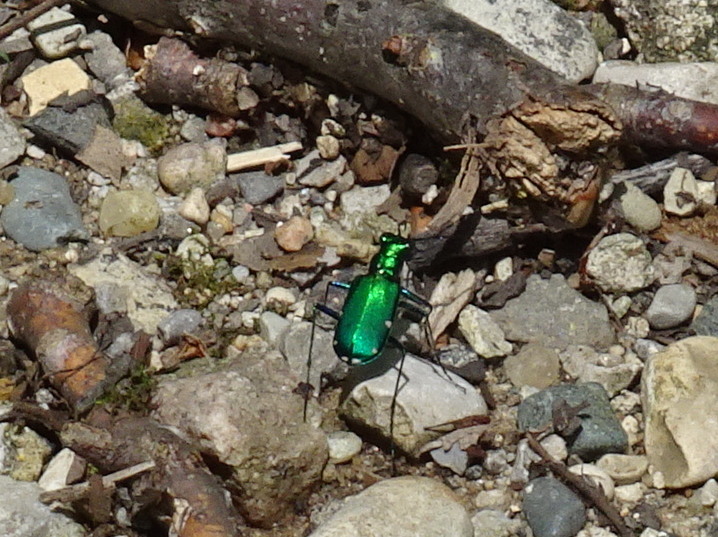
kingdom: Animalia
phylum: Arthropoda
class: Insecta
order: Coleoptera
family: Carabidae
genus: Cicindela
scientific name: Cicindela sexguttata
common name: Six-spotted tiger beetle
